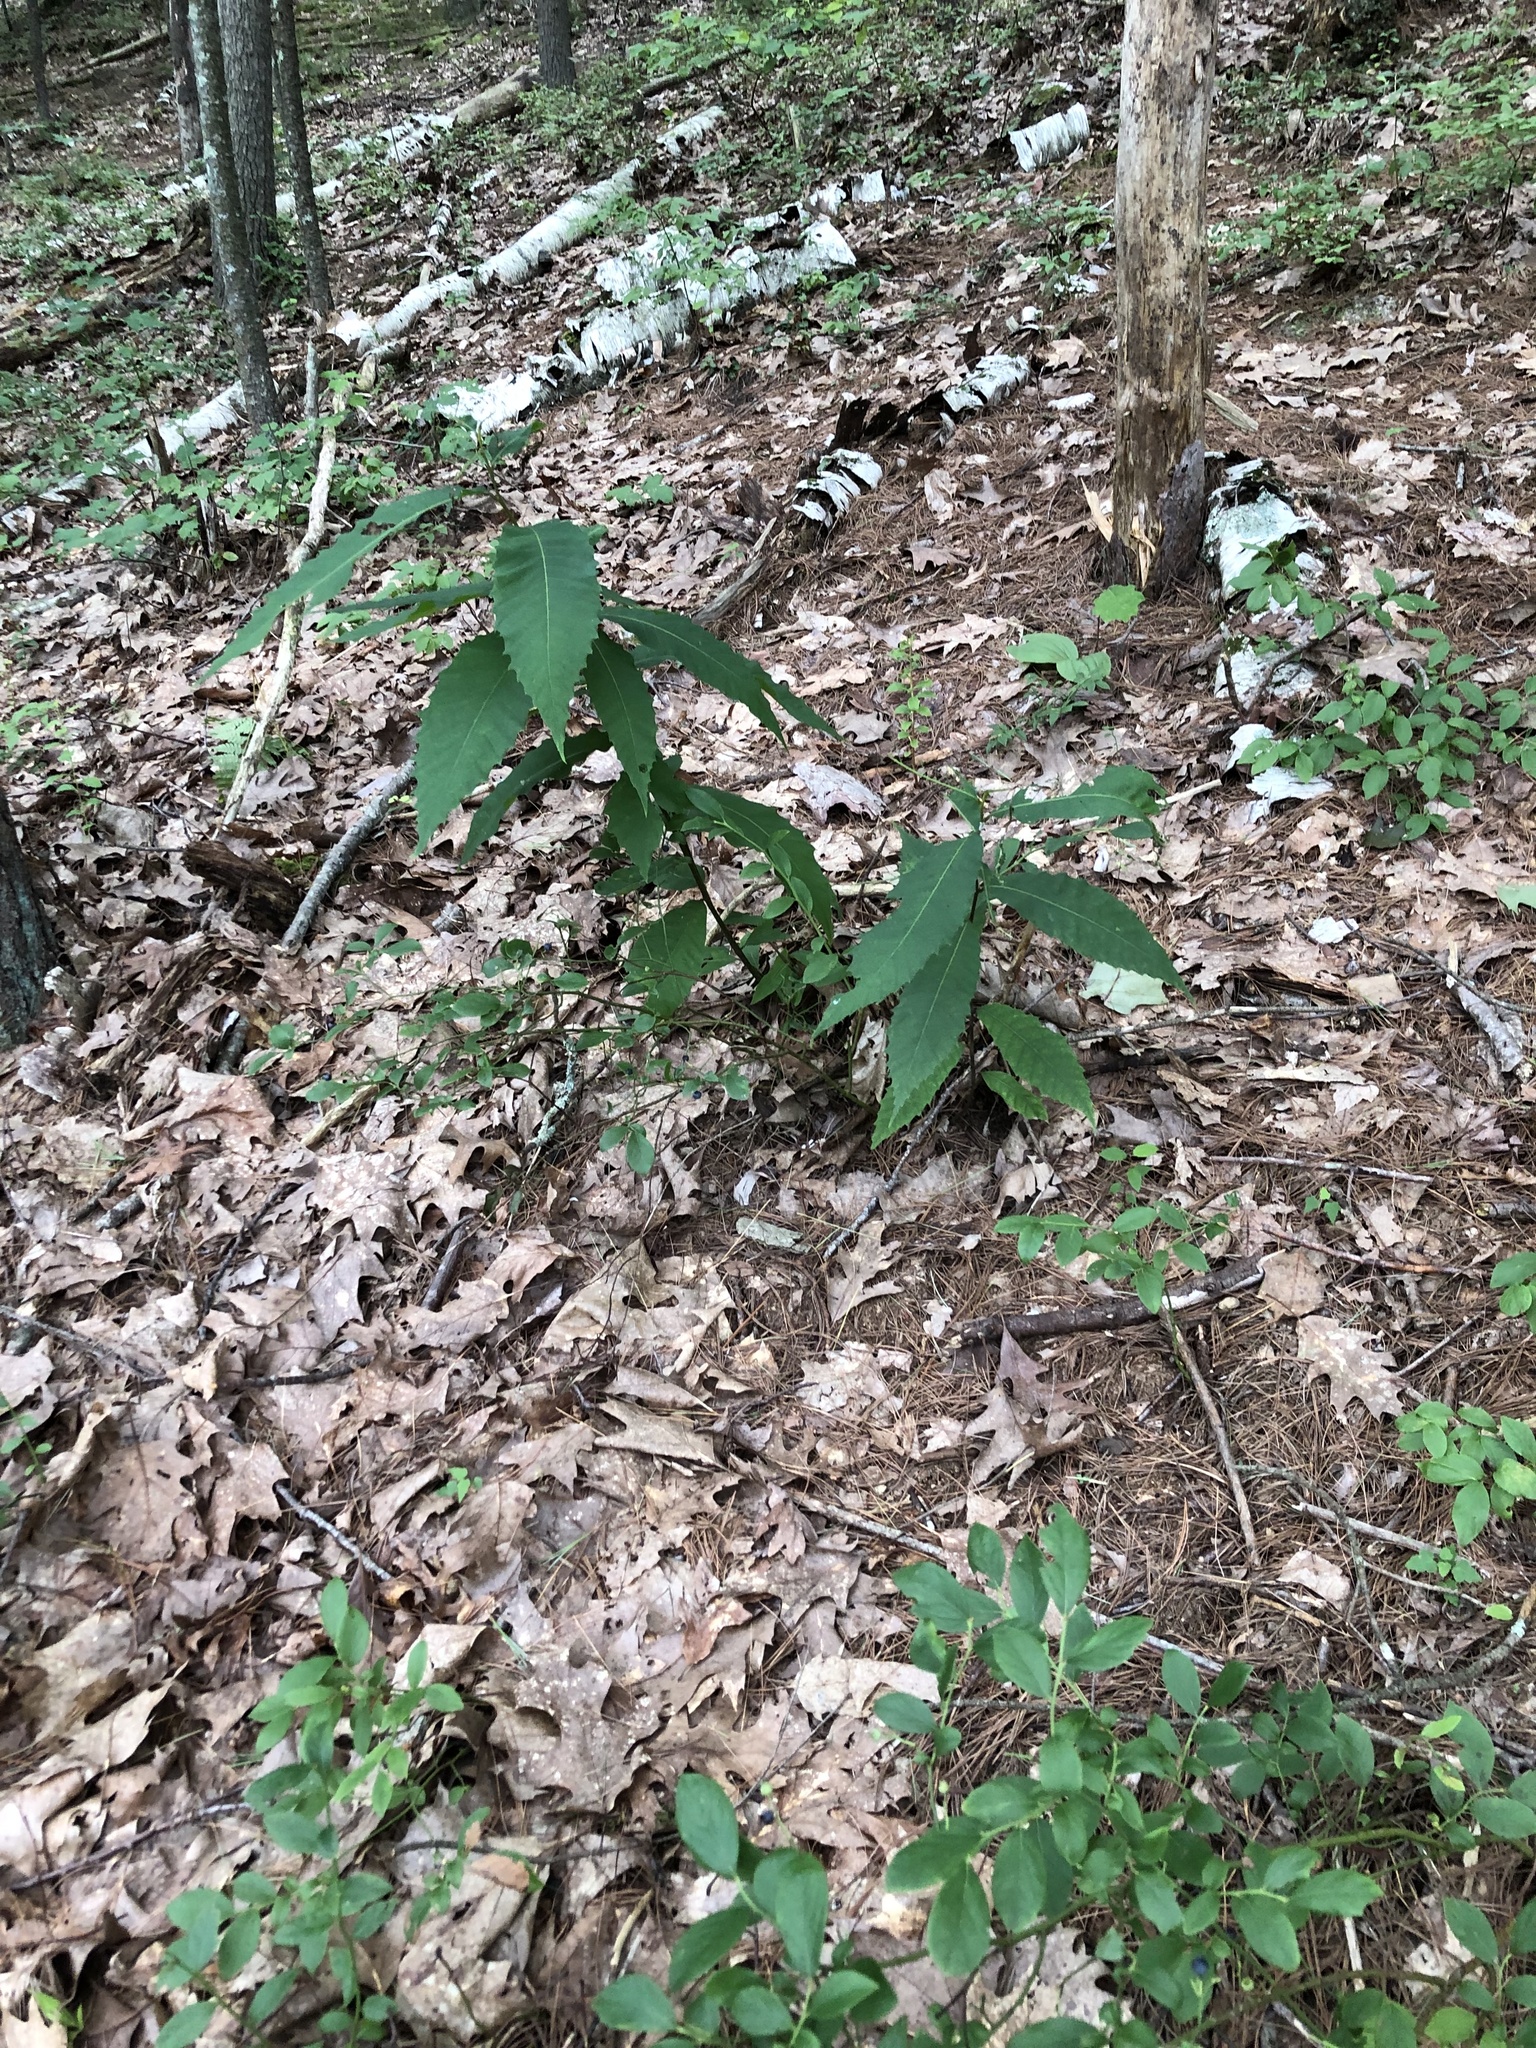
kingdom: Plantae
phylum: Tracheophyta
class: Magnoliopsida
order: Fagales
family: Fagaceae
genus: Castanea
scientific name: Castanea dentata
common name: American chestnut
